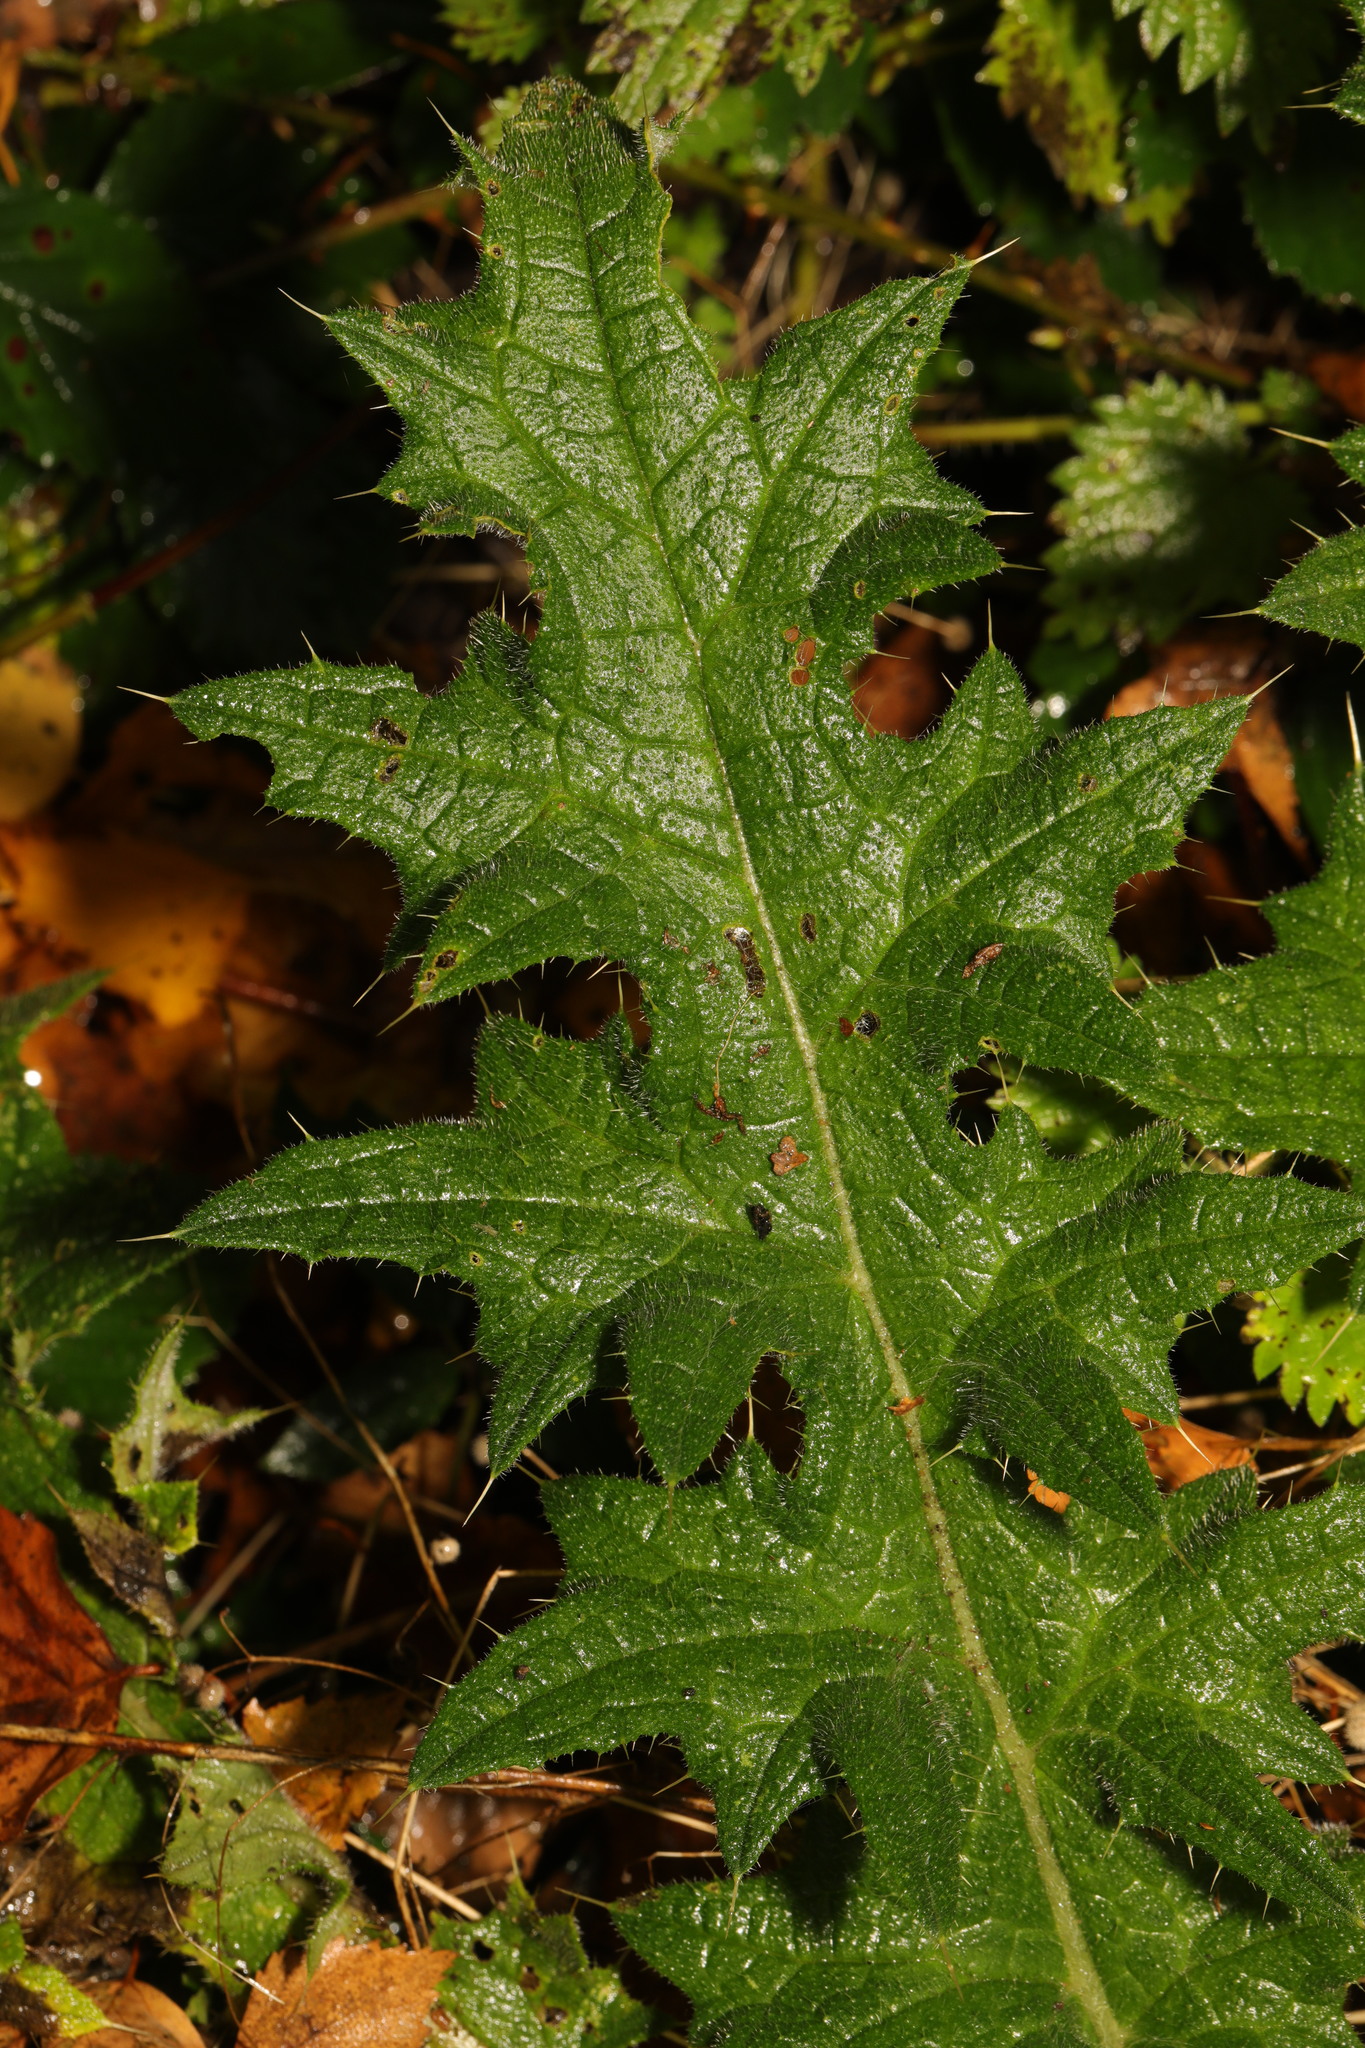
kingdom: Plantae
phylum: Tracheophyta
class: Magnoliopsida
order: Asterales
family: Asteraceae
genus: Cirsium
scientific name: Cirsium vulgare
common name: Bull thistle
